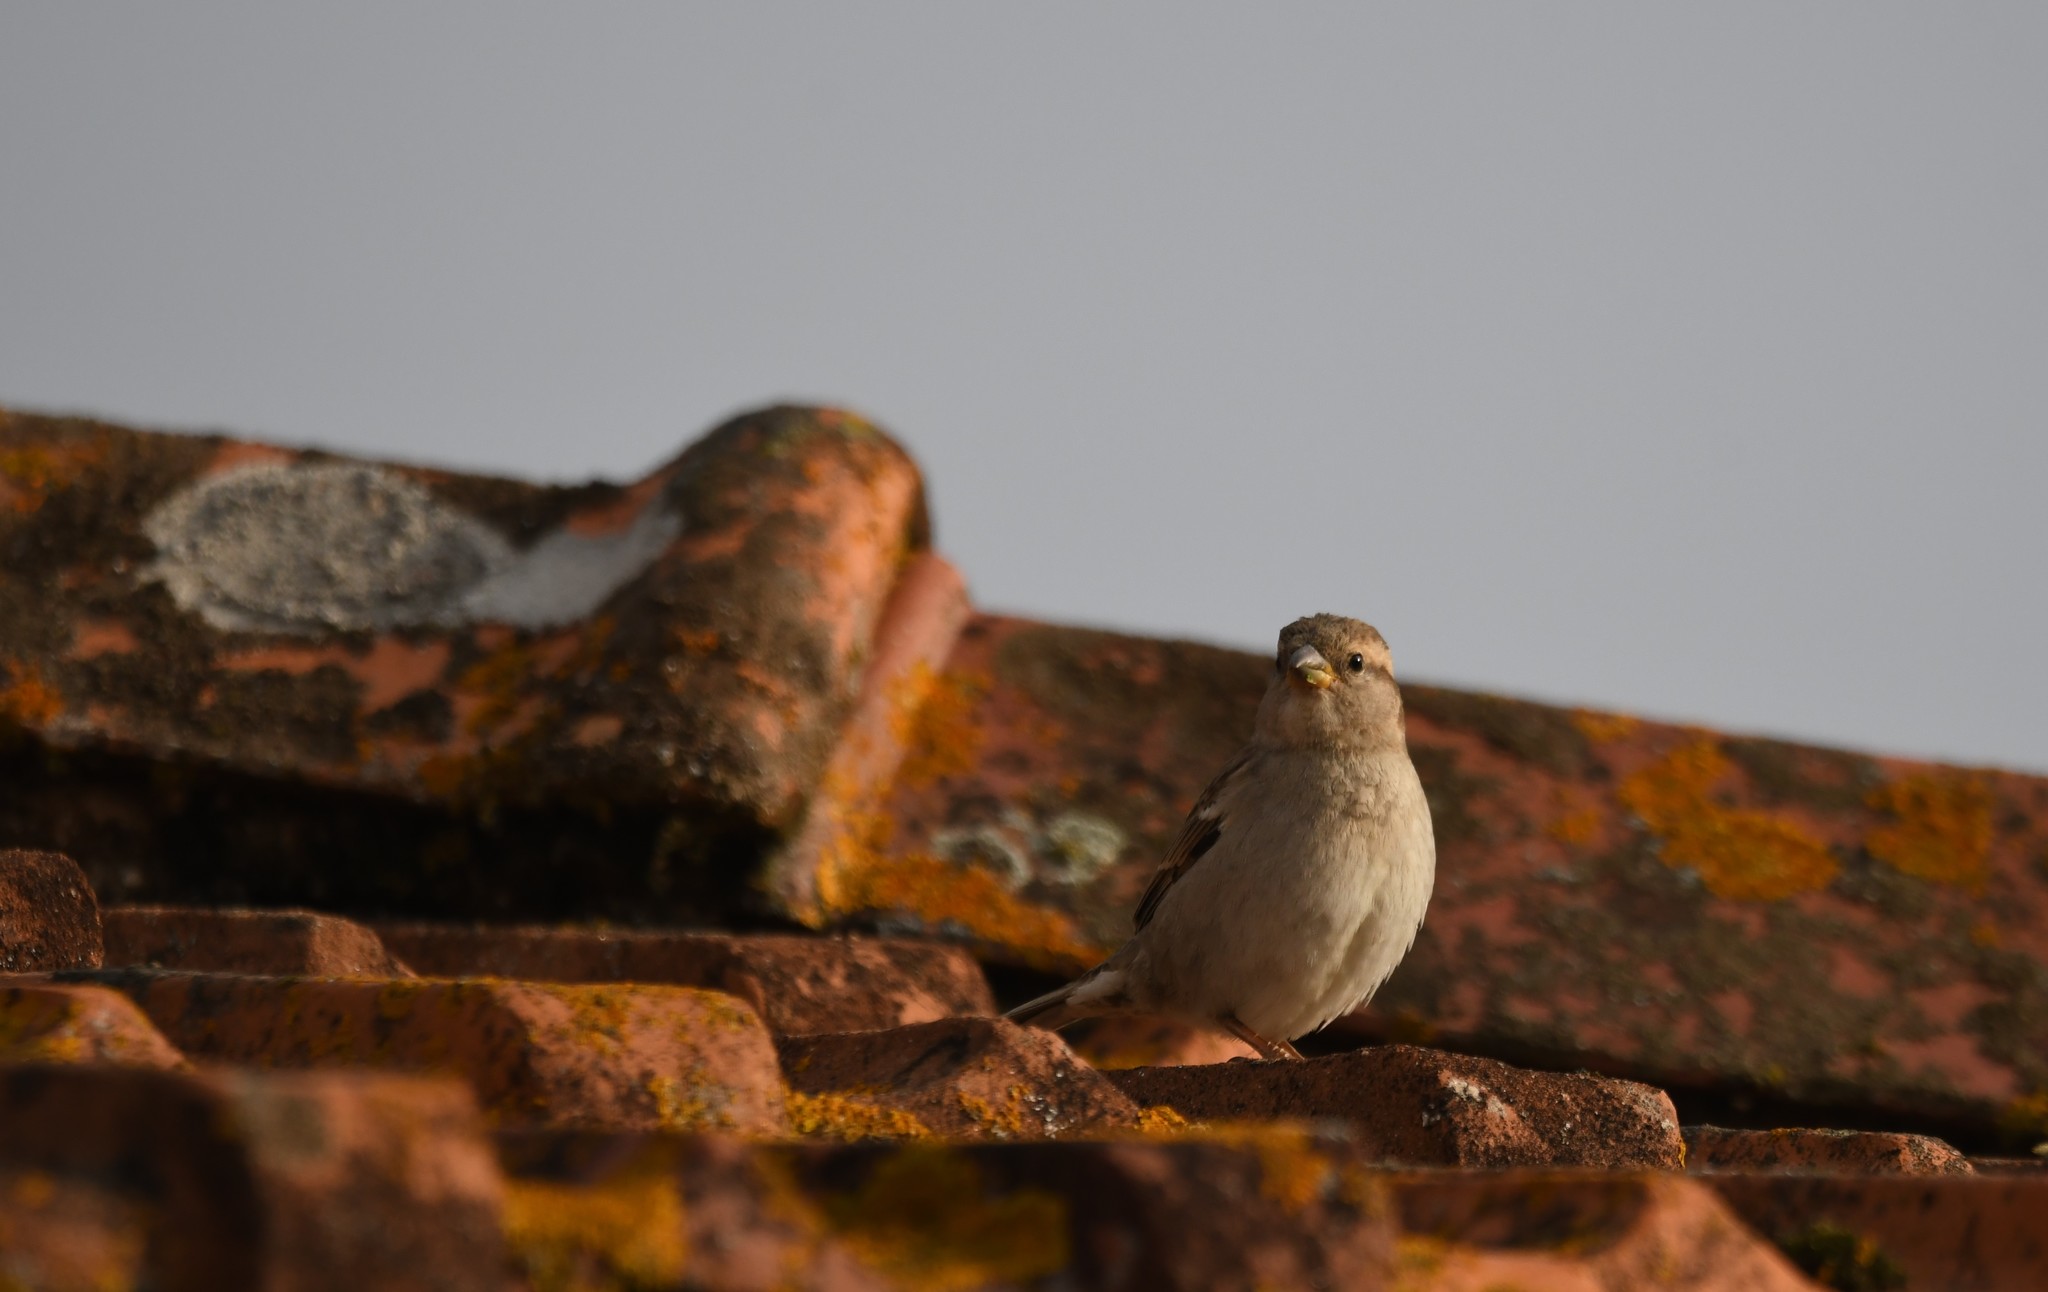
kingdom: Animalia
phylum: Chordata
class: Aves
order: Passeriformes
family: Passeridae
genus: Passer
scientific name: Passer domesticus
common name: House sparrow
